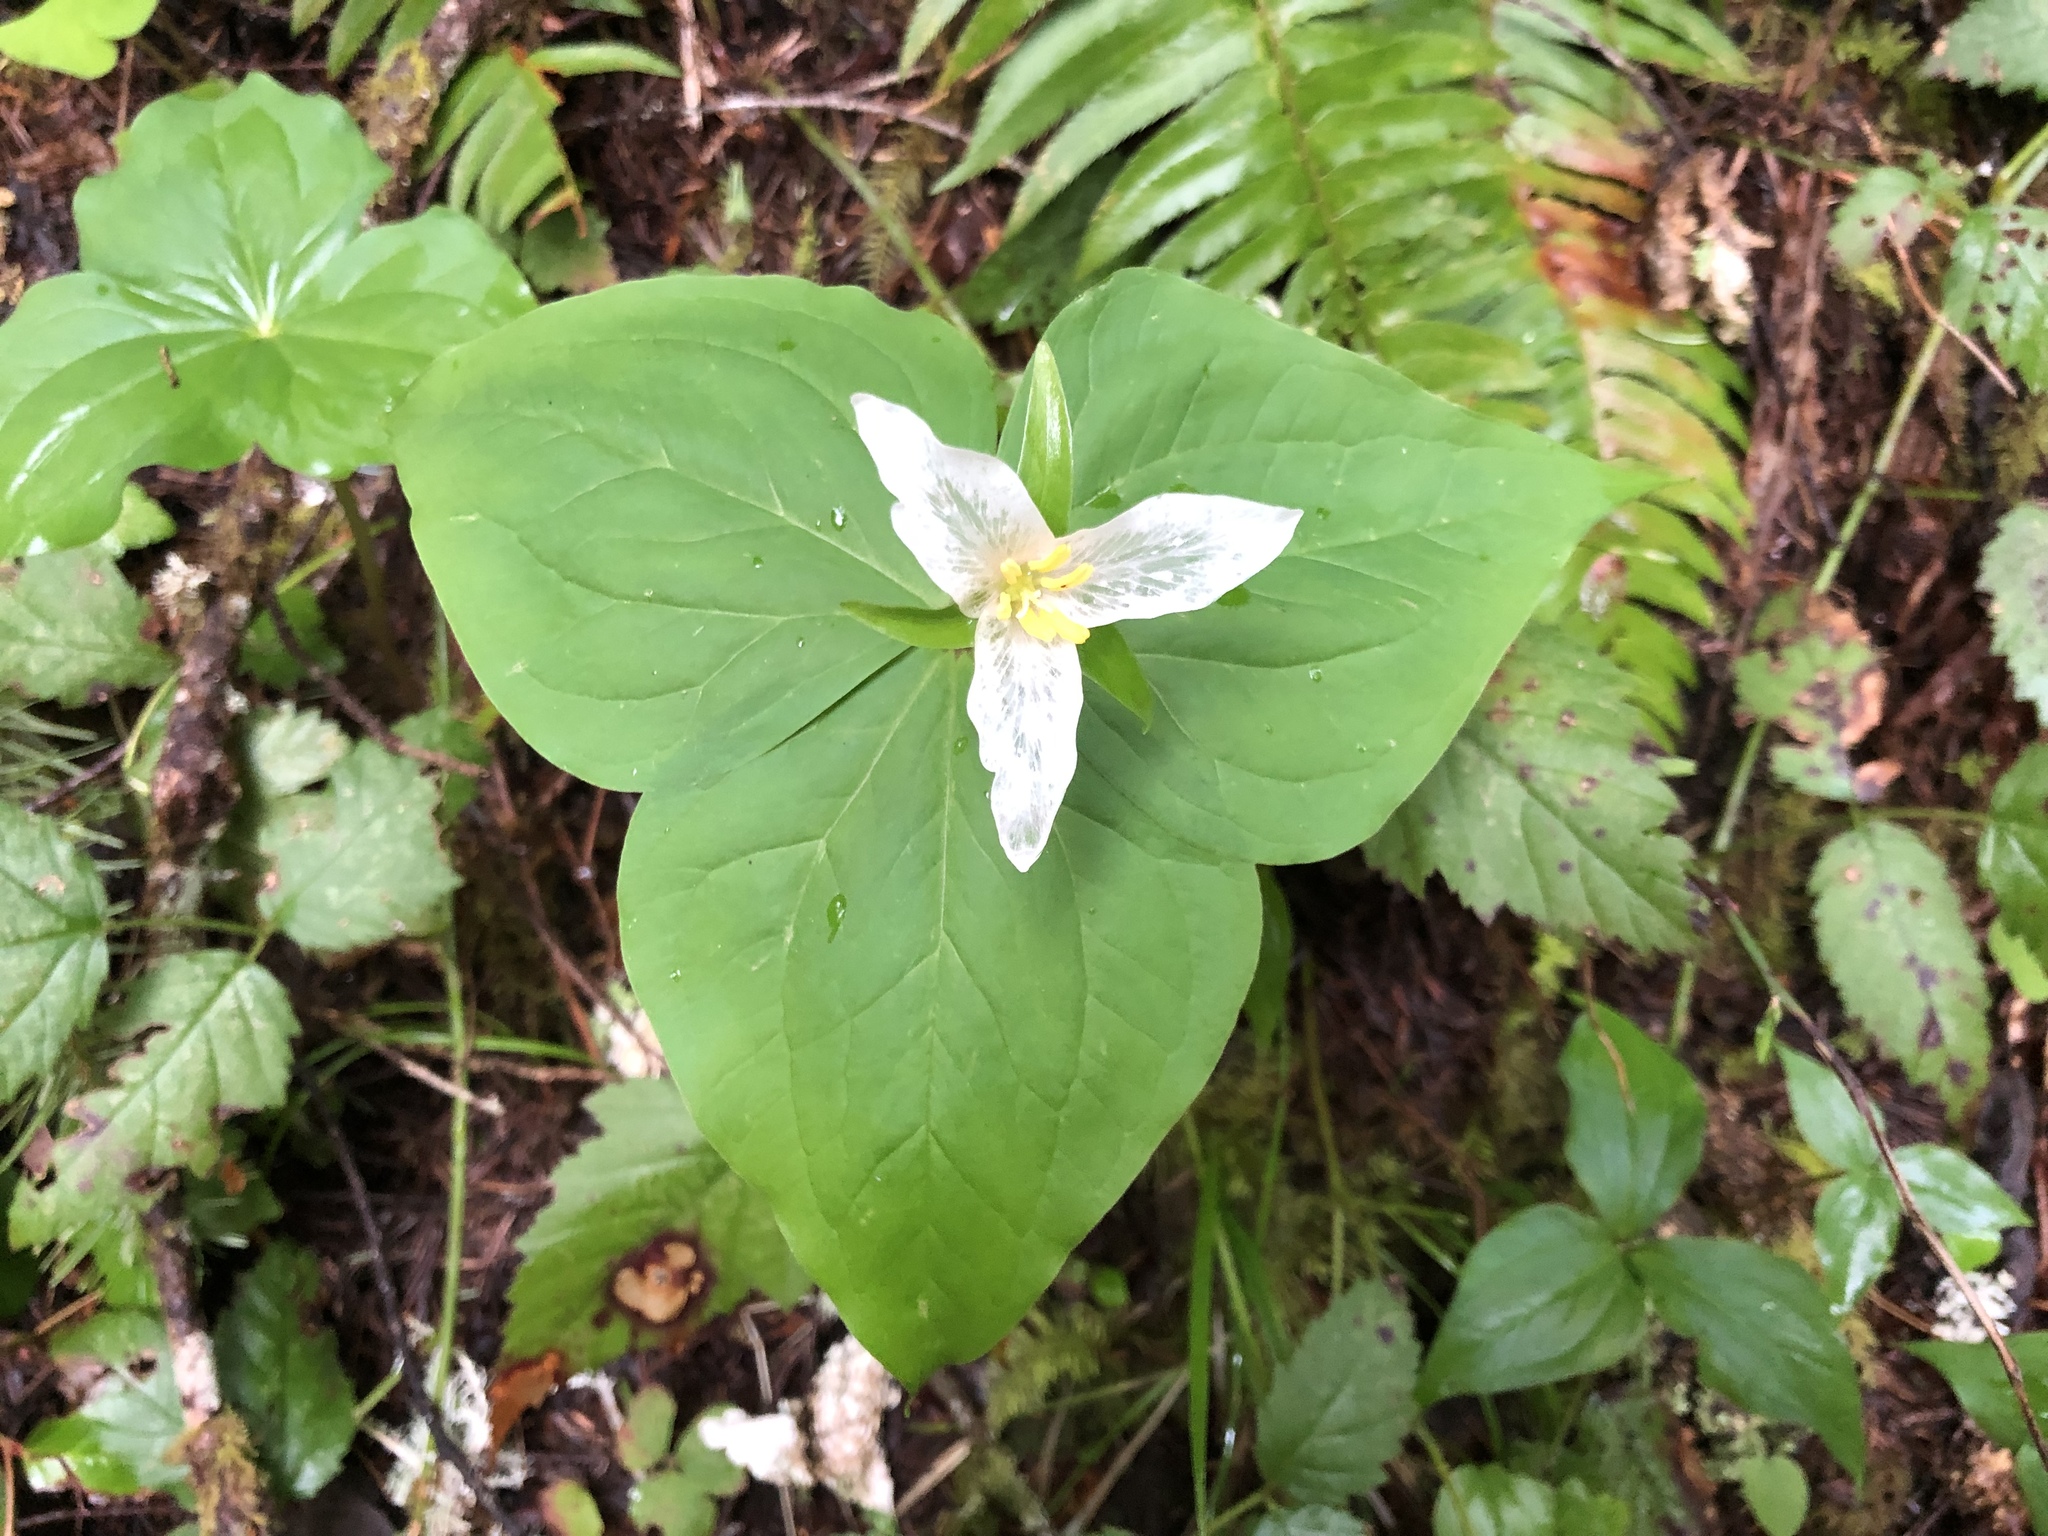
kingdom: Plantae
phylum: Tracheophyta
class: Liliopsida
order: Liliales
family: Melanthiaceae
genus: Trillium
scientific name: Trillium ovatum
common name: Pacific trillium
